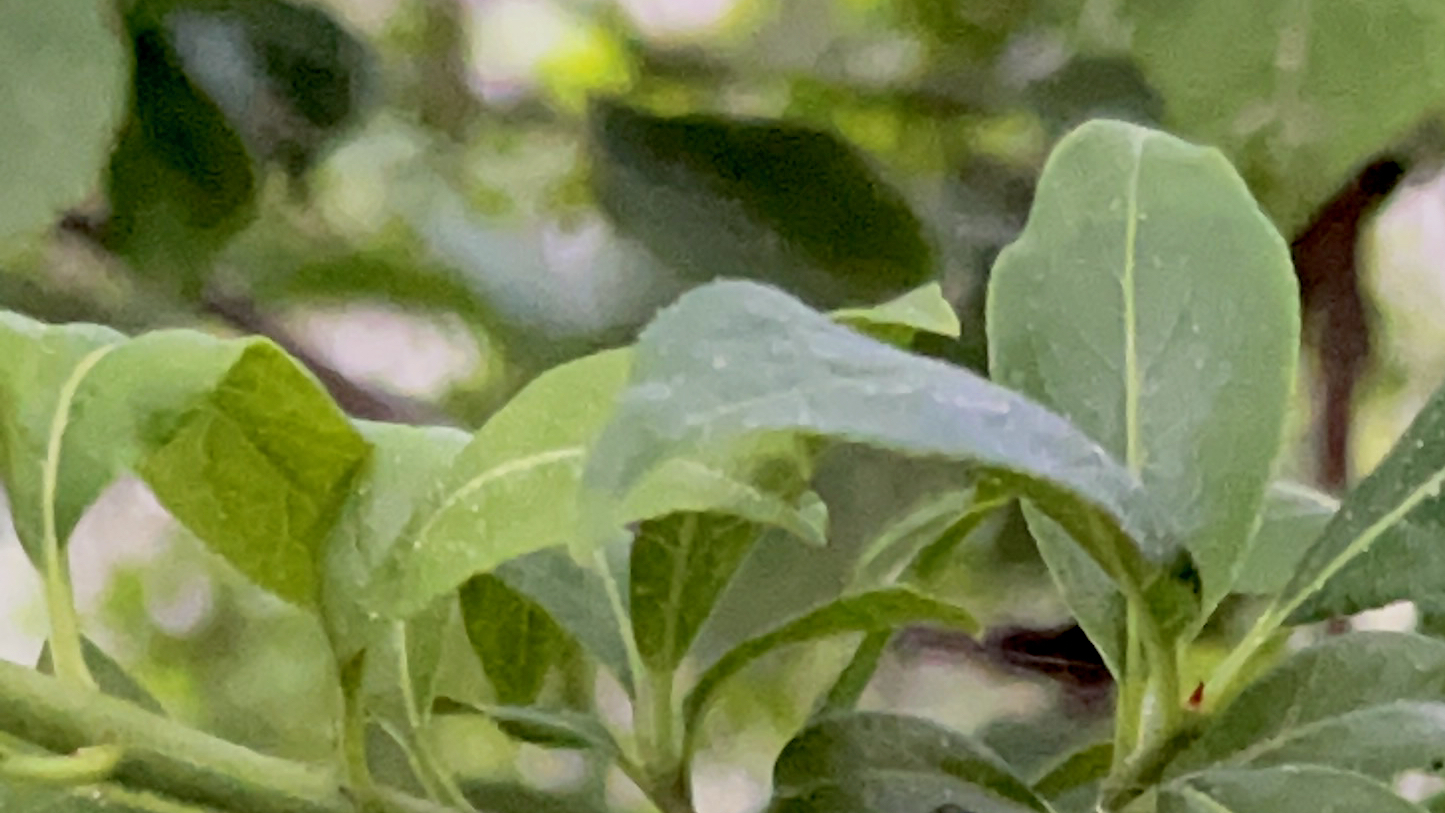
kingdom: Plantae
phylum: Tracheophyta
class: Magnoliopsida
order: Celastrales
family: Celastraceae
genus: Euonymus
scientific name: Euonymus europaeus
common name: Spindle
